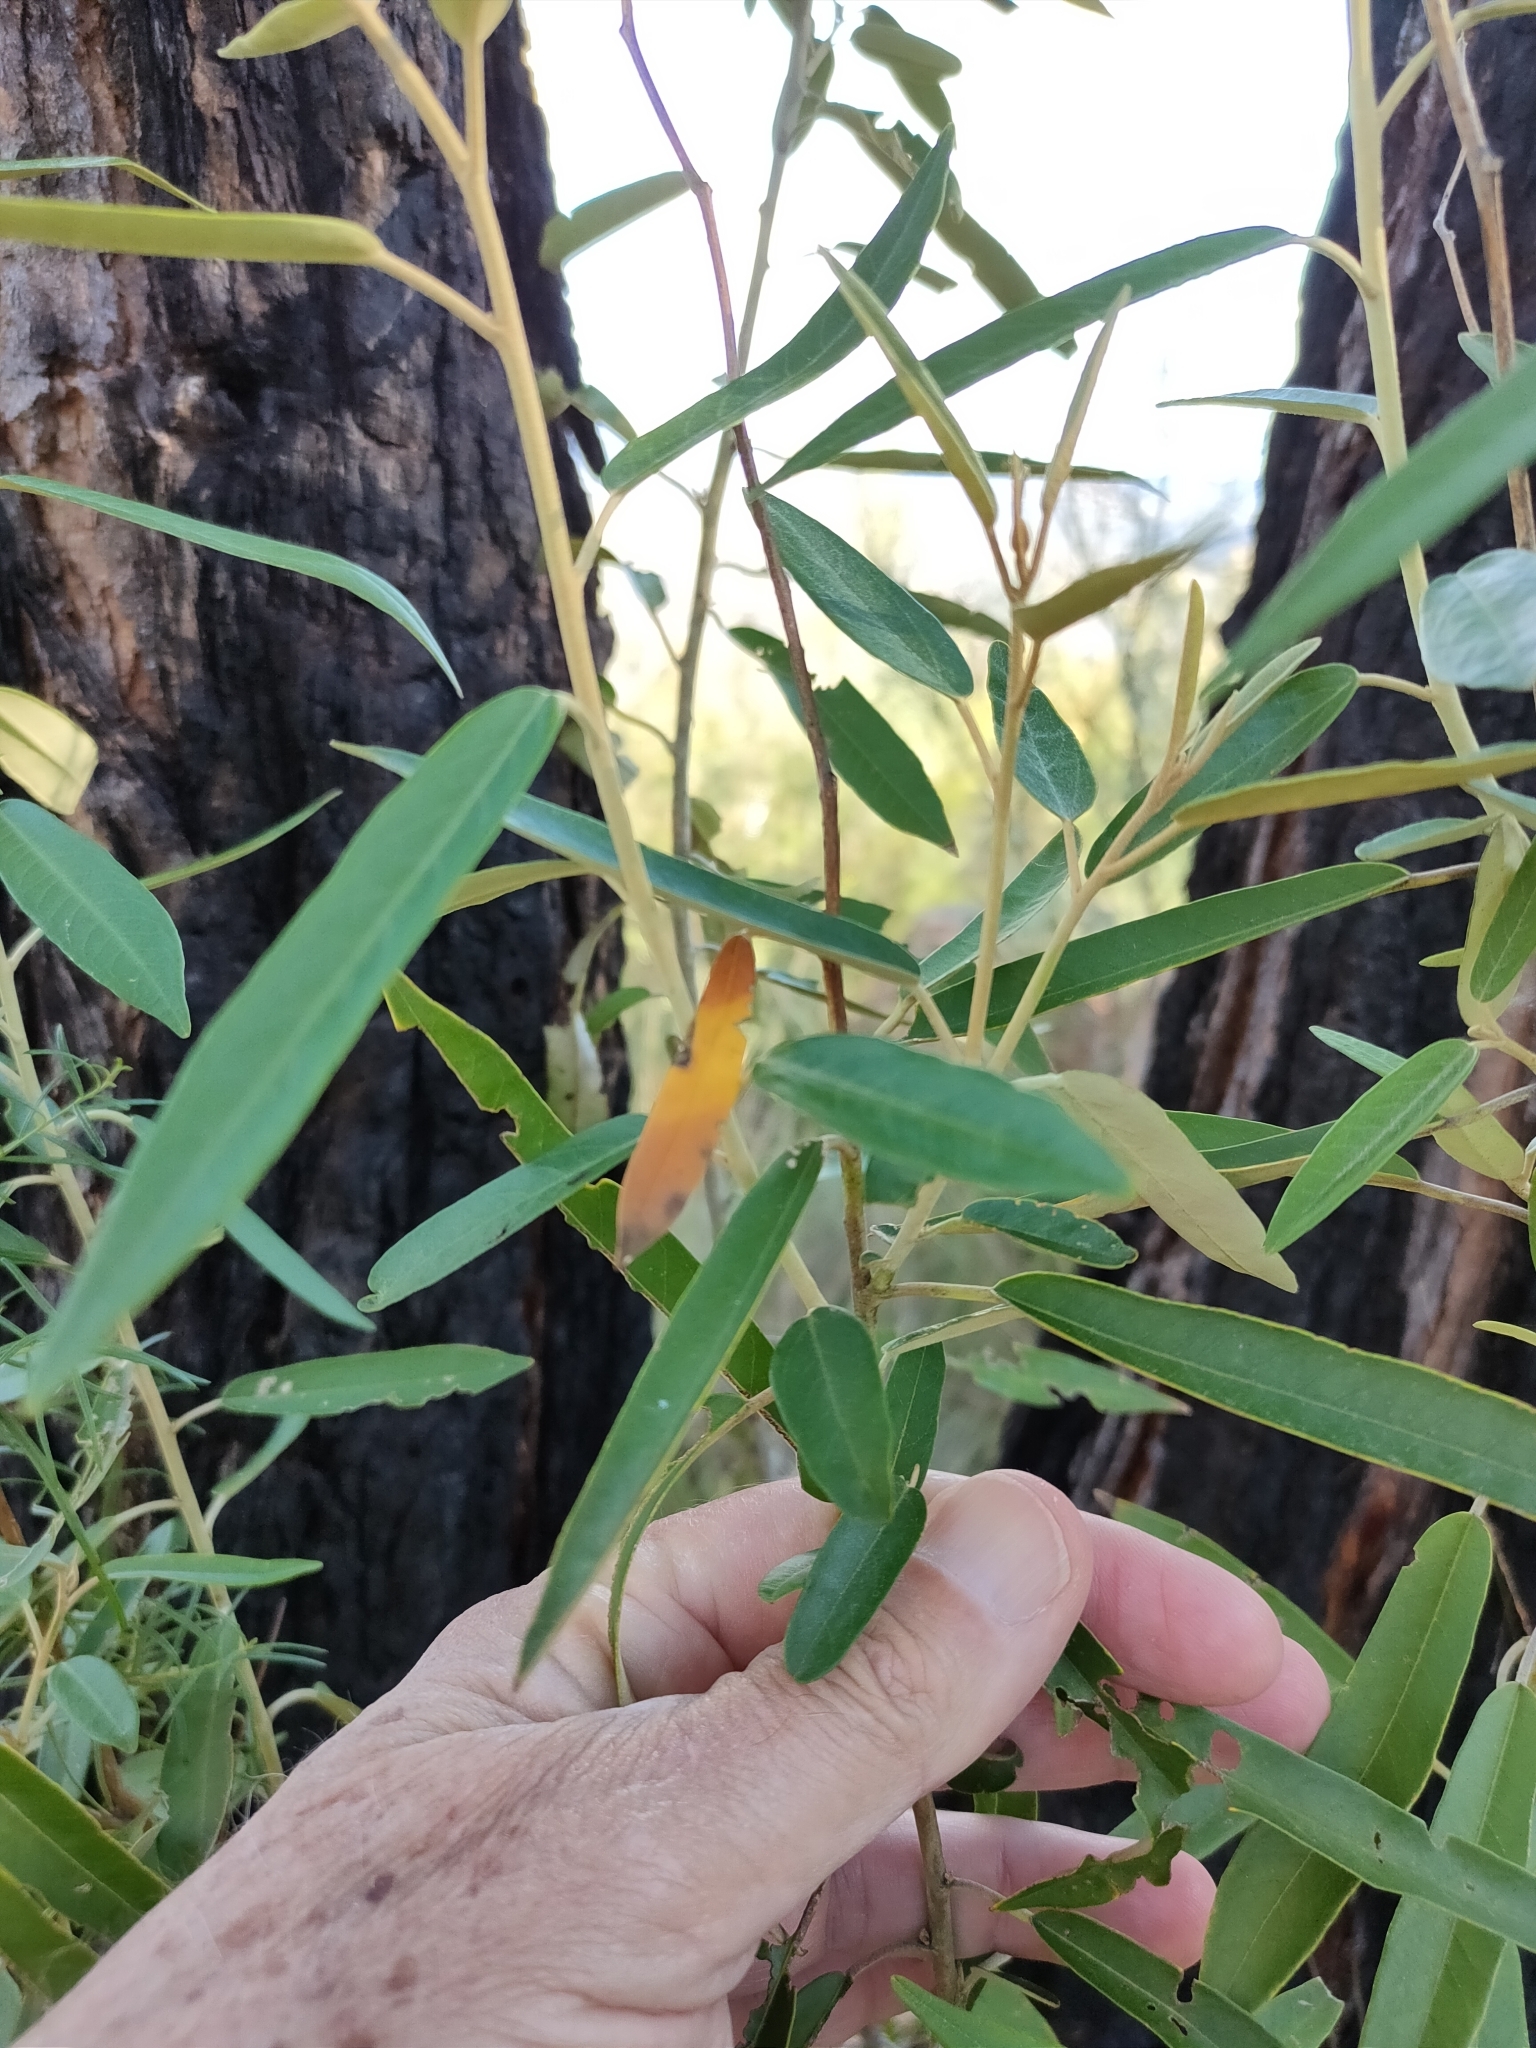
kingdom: Plantae
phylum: Tracheophyta
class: Magnoliopsida
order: Apiales
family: Araliaceae
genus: Astrotricha
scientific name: Astrotricha longifolia
